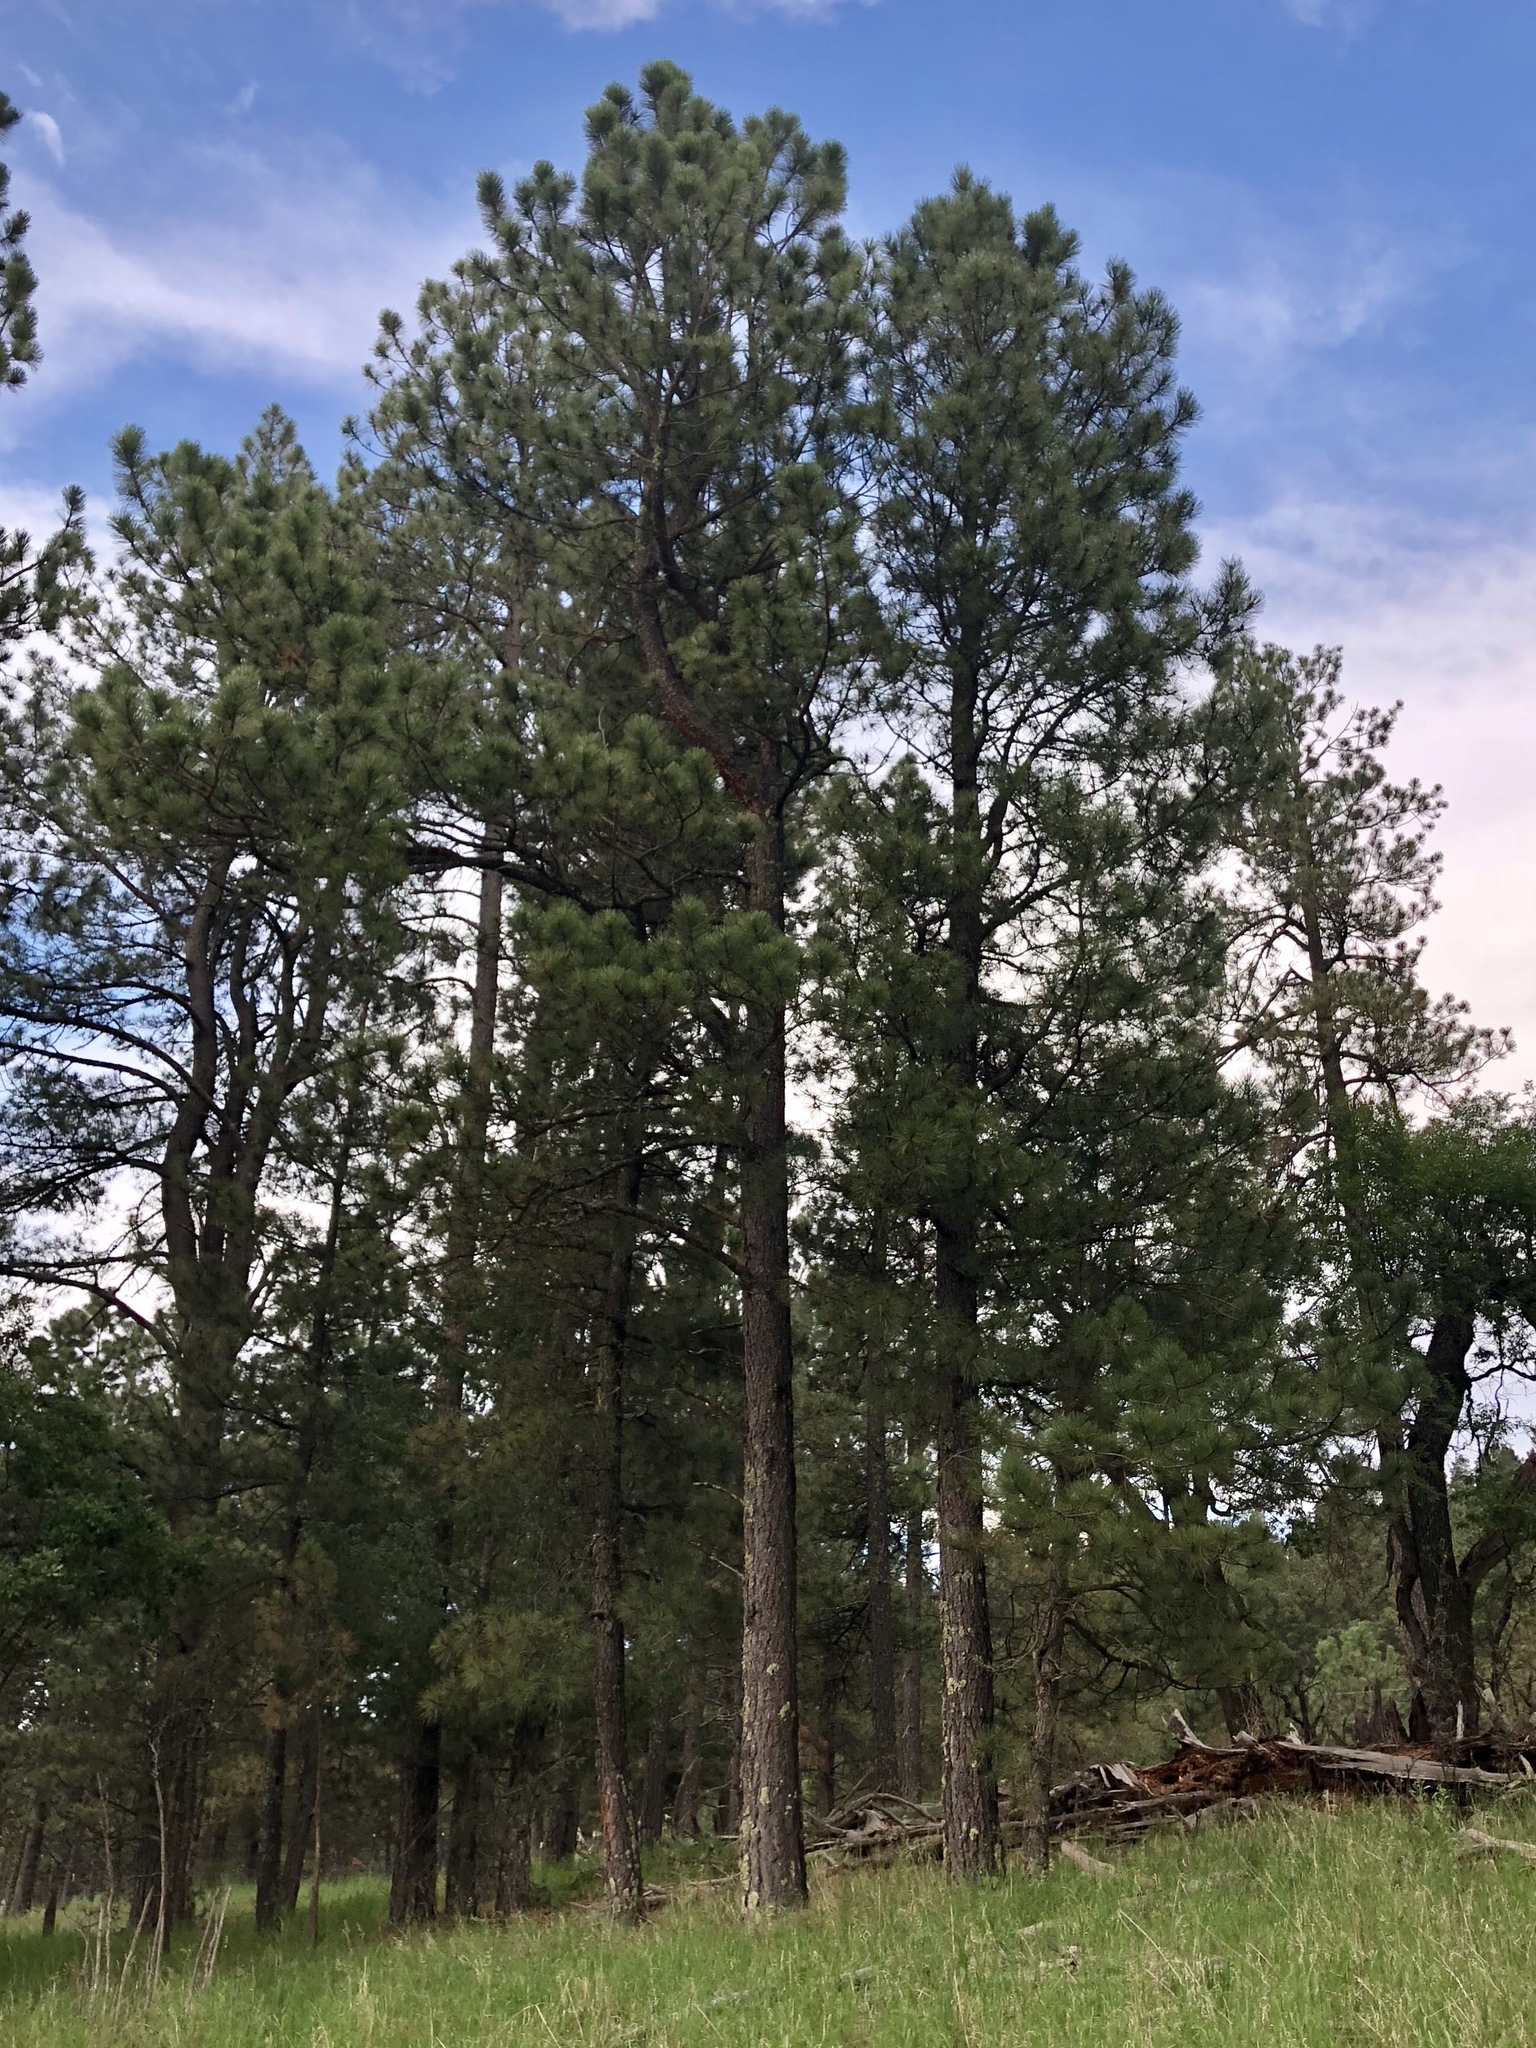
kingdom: Plantae
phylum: Tracheophyta
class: Pinopsida
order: Pinales
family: Pinaceae
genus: Pinus
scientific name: Pinus ponderosa
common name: Western yellow-pine
